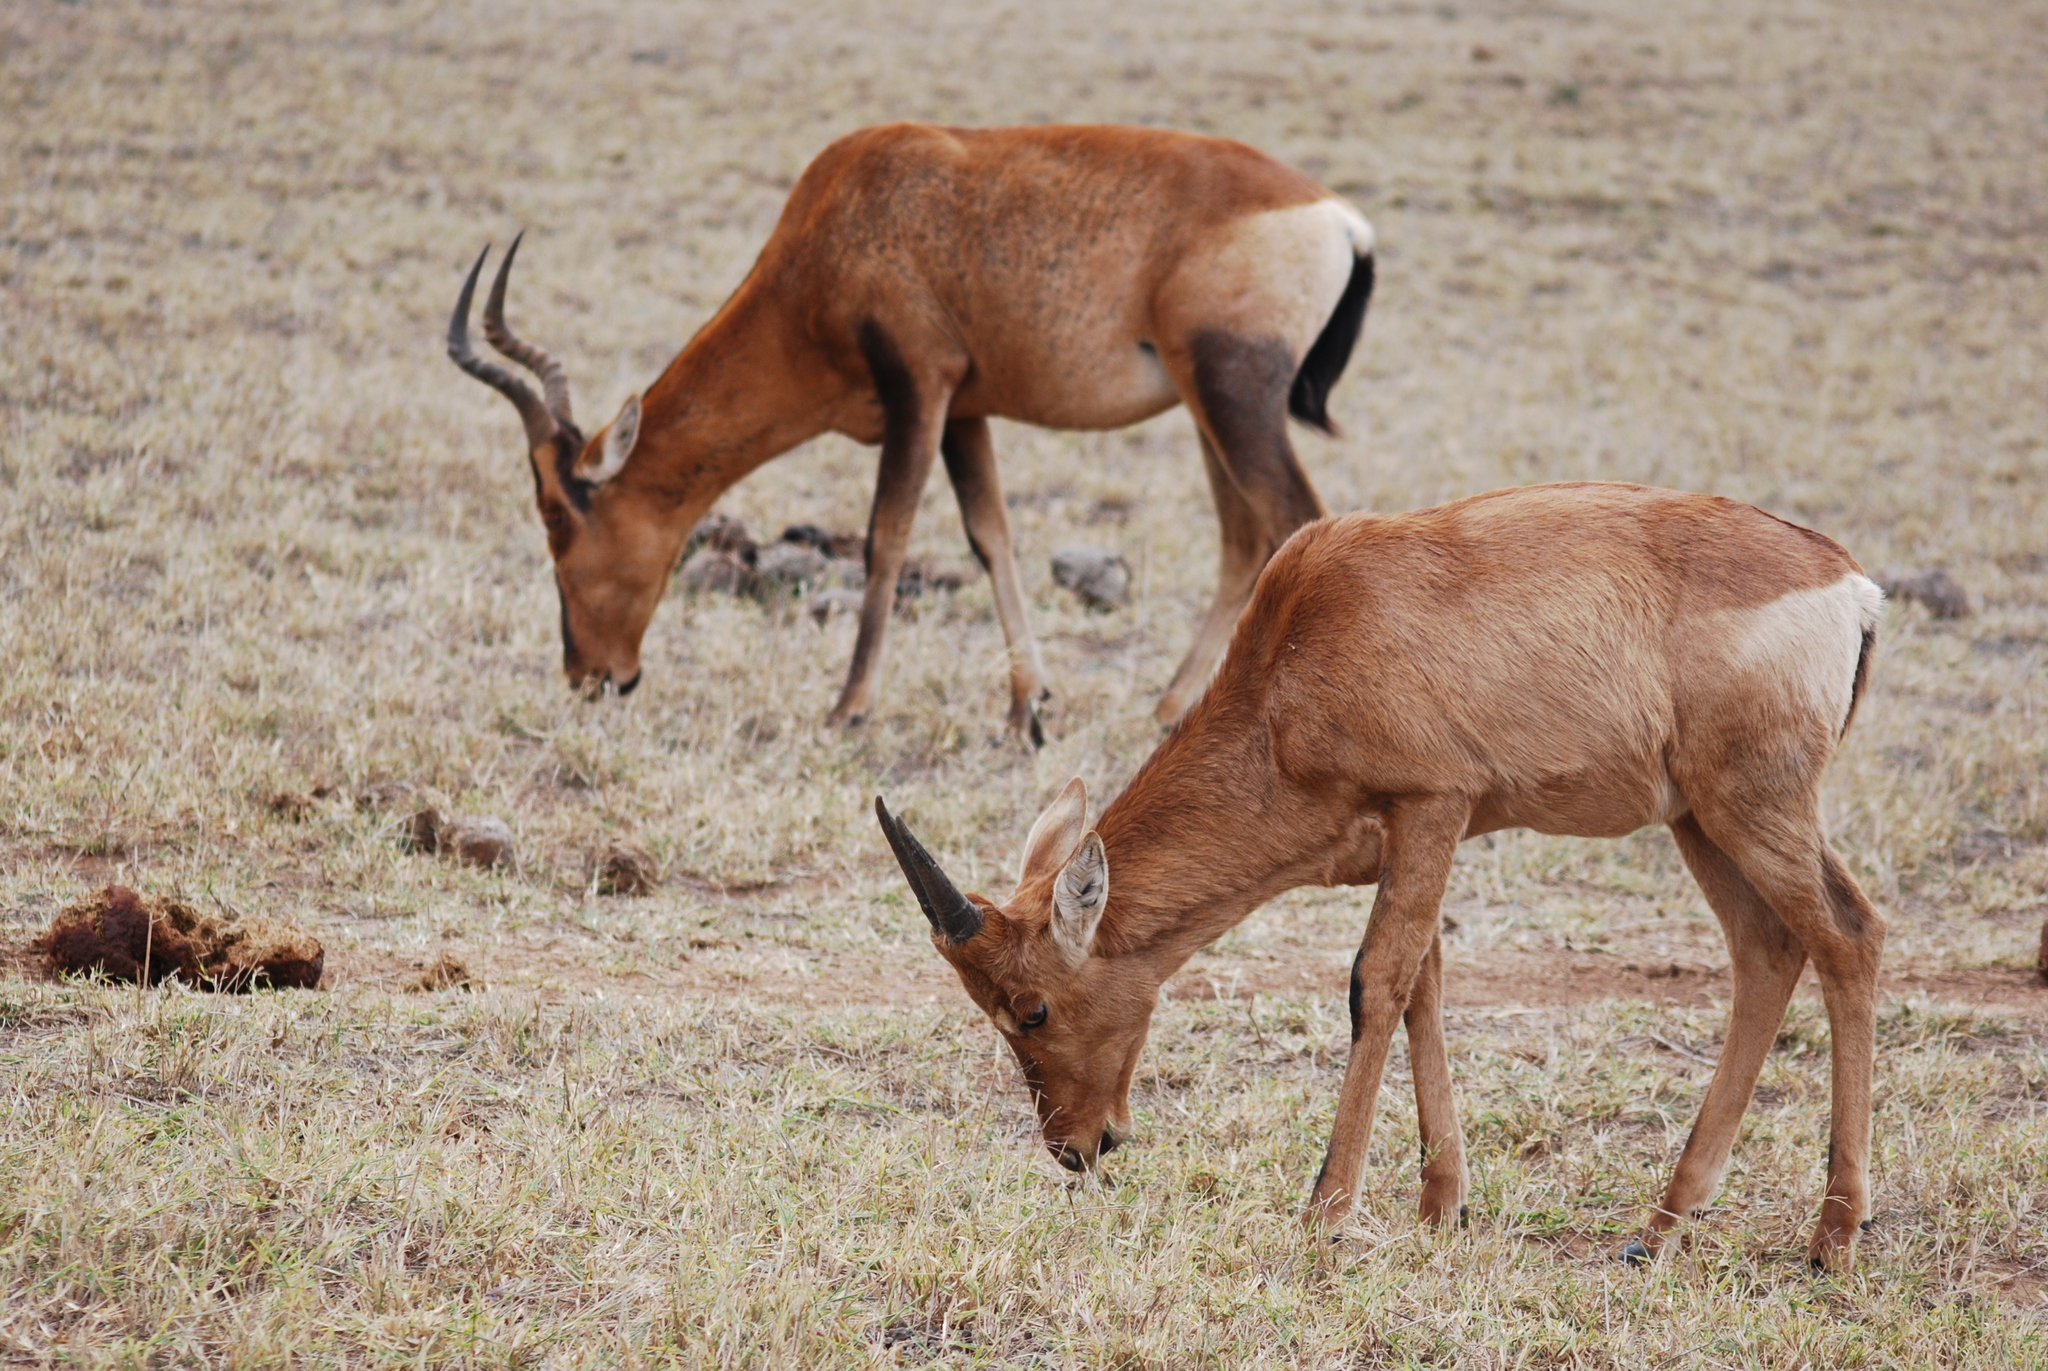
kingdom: Animalia
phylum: Chordata
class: Mammalia
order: Artiodactyla
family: Bovidae
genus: Alcelaphus
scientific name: Alcelaphus caama
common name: Red hartebeest
